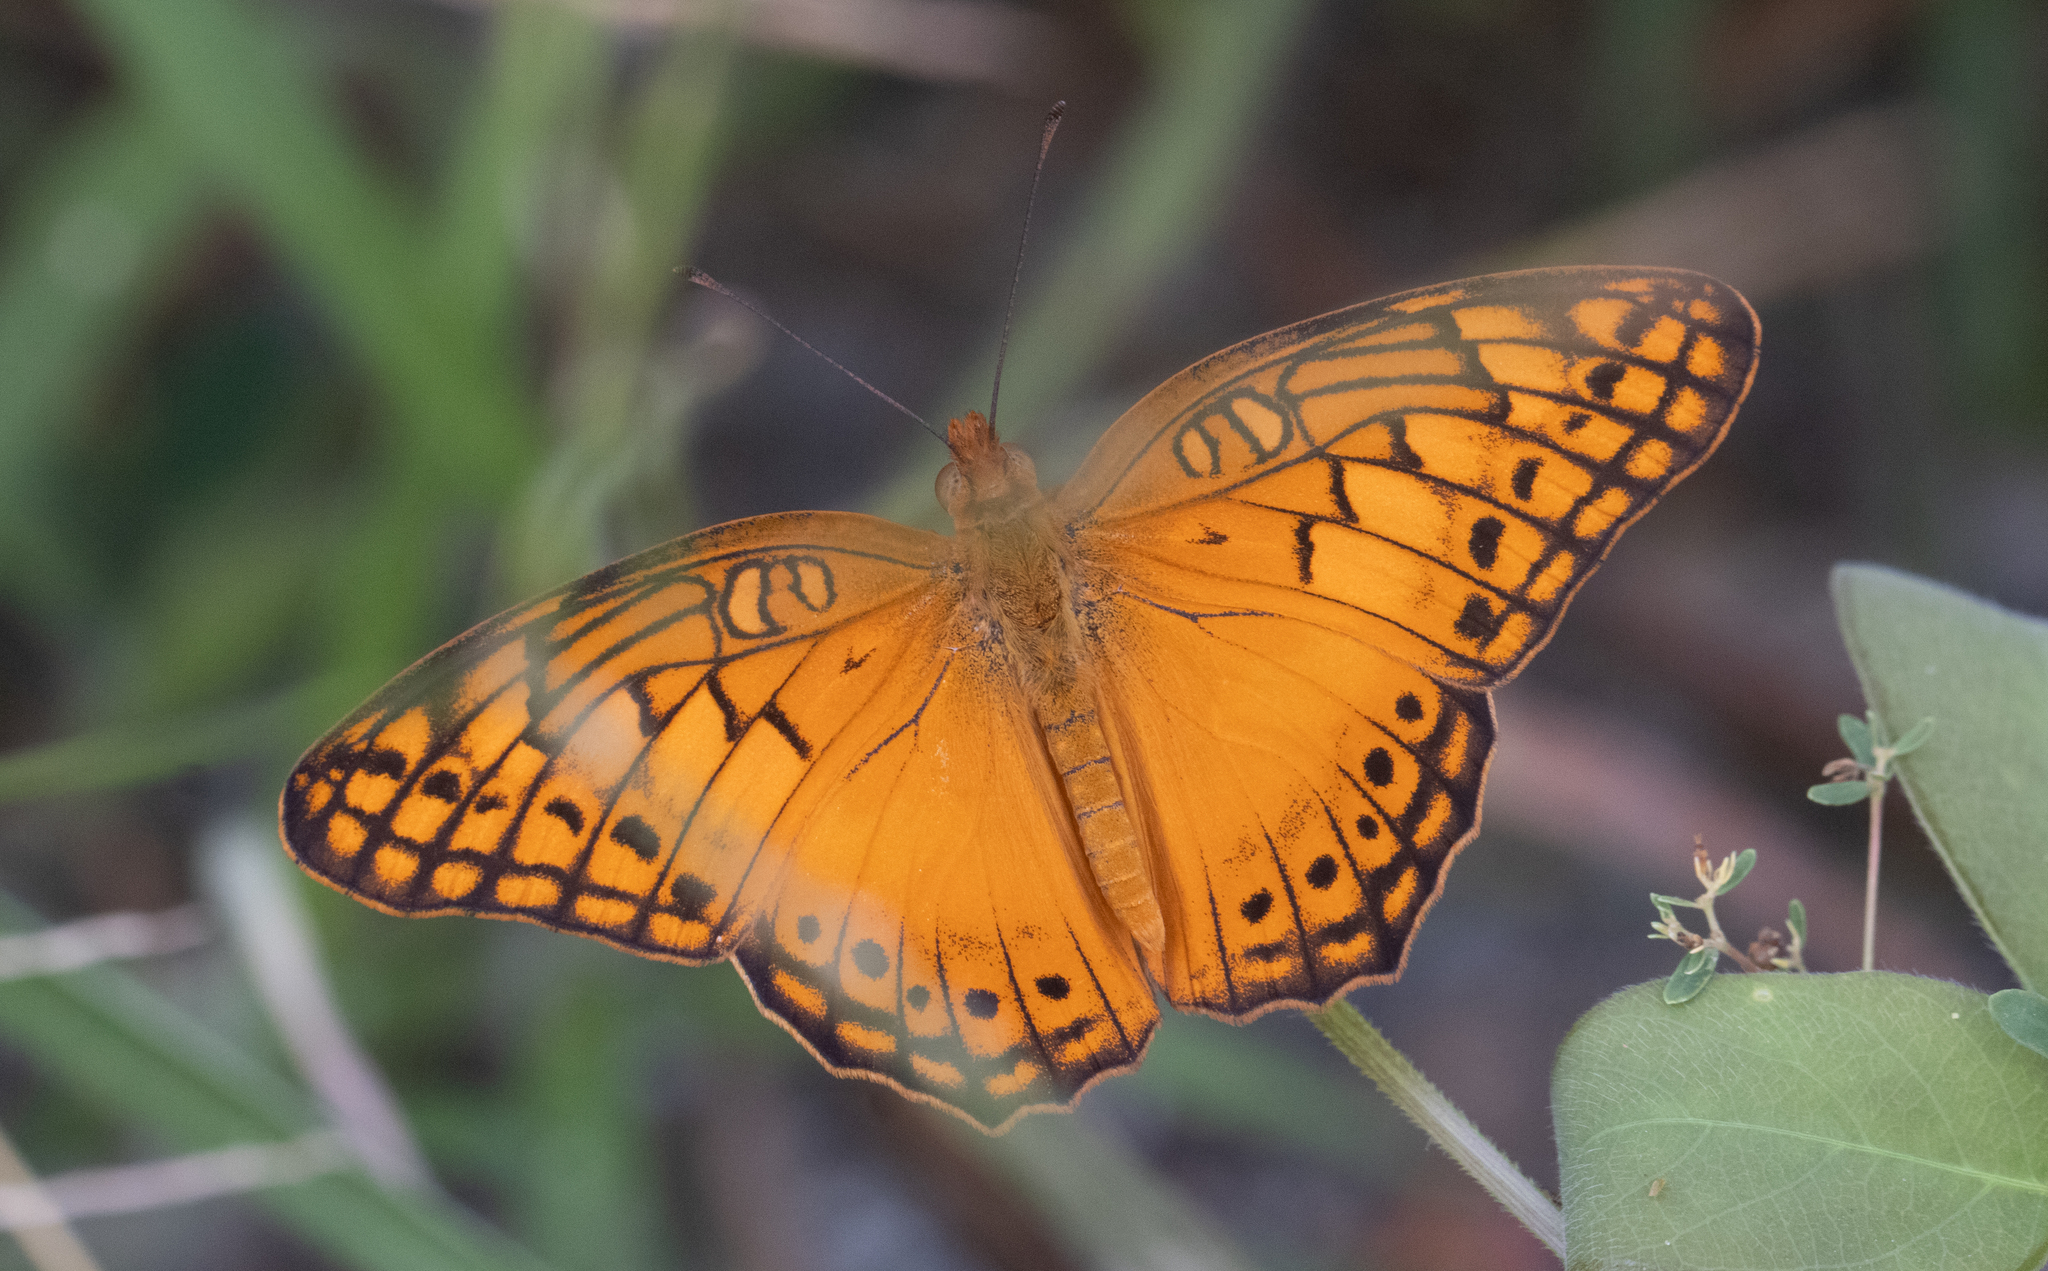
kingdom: Animalia
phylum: Arthropoda
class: Insecta
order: Lepidoptera
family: Nymphalidae
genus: Euptoieta
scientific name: Euptoieta hegesia
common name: Mexican fritillary
